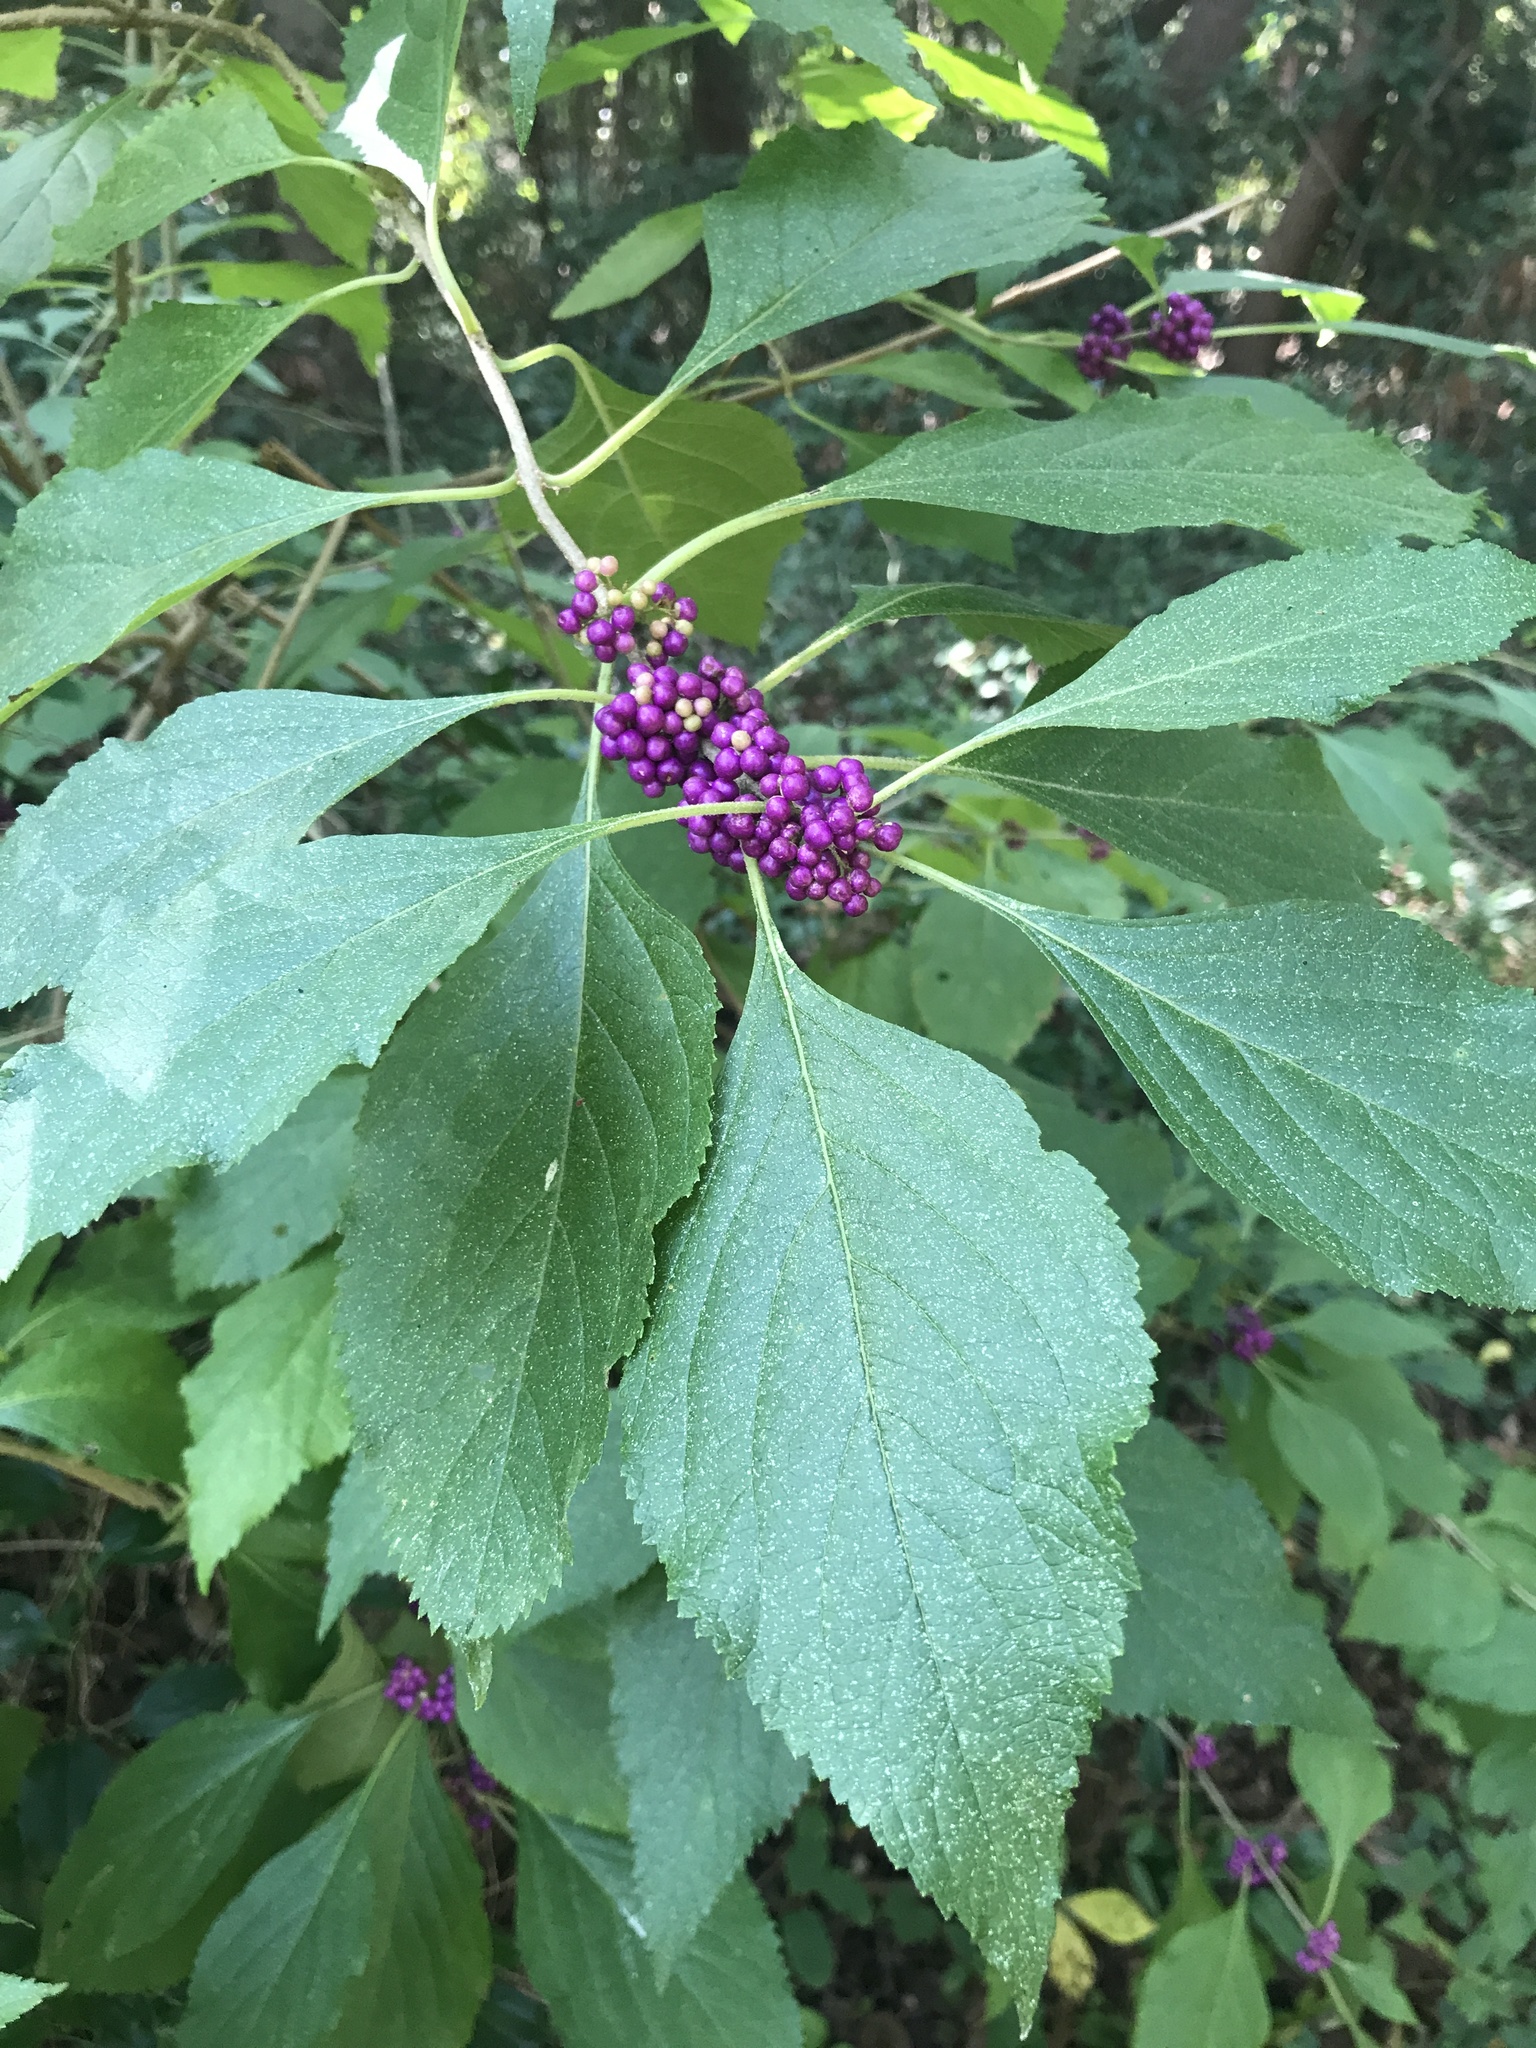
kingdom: Plantae
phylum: Tracheophyta
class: Magnoliopsida
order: Lamiales
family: Lamiaceae
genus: Callicarpa
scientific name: Callicarpa americana
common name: American beautyberry
